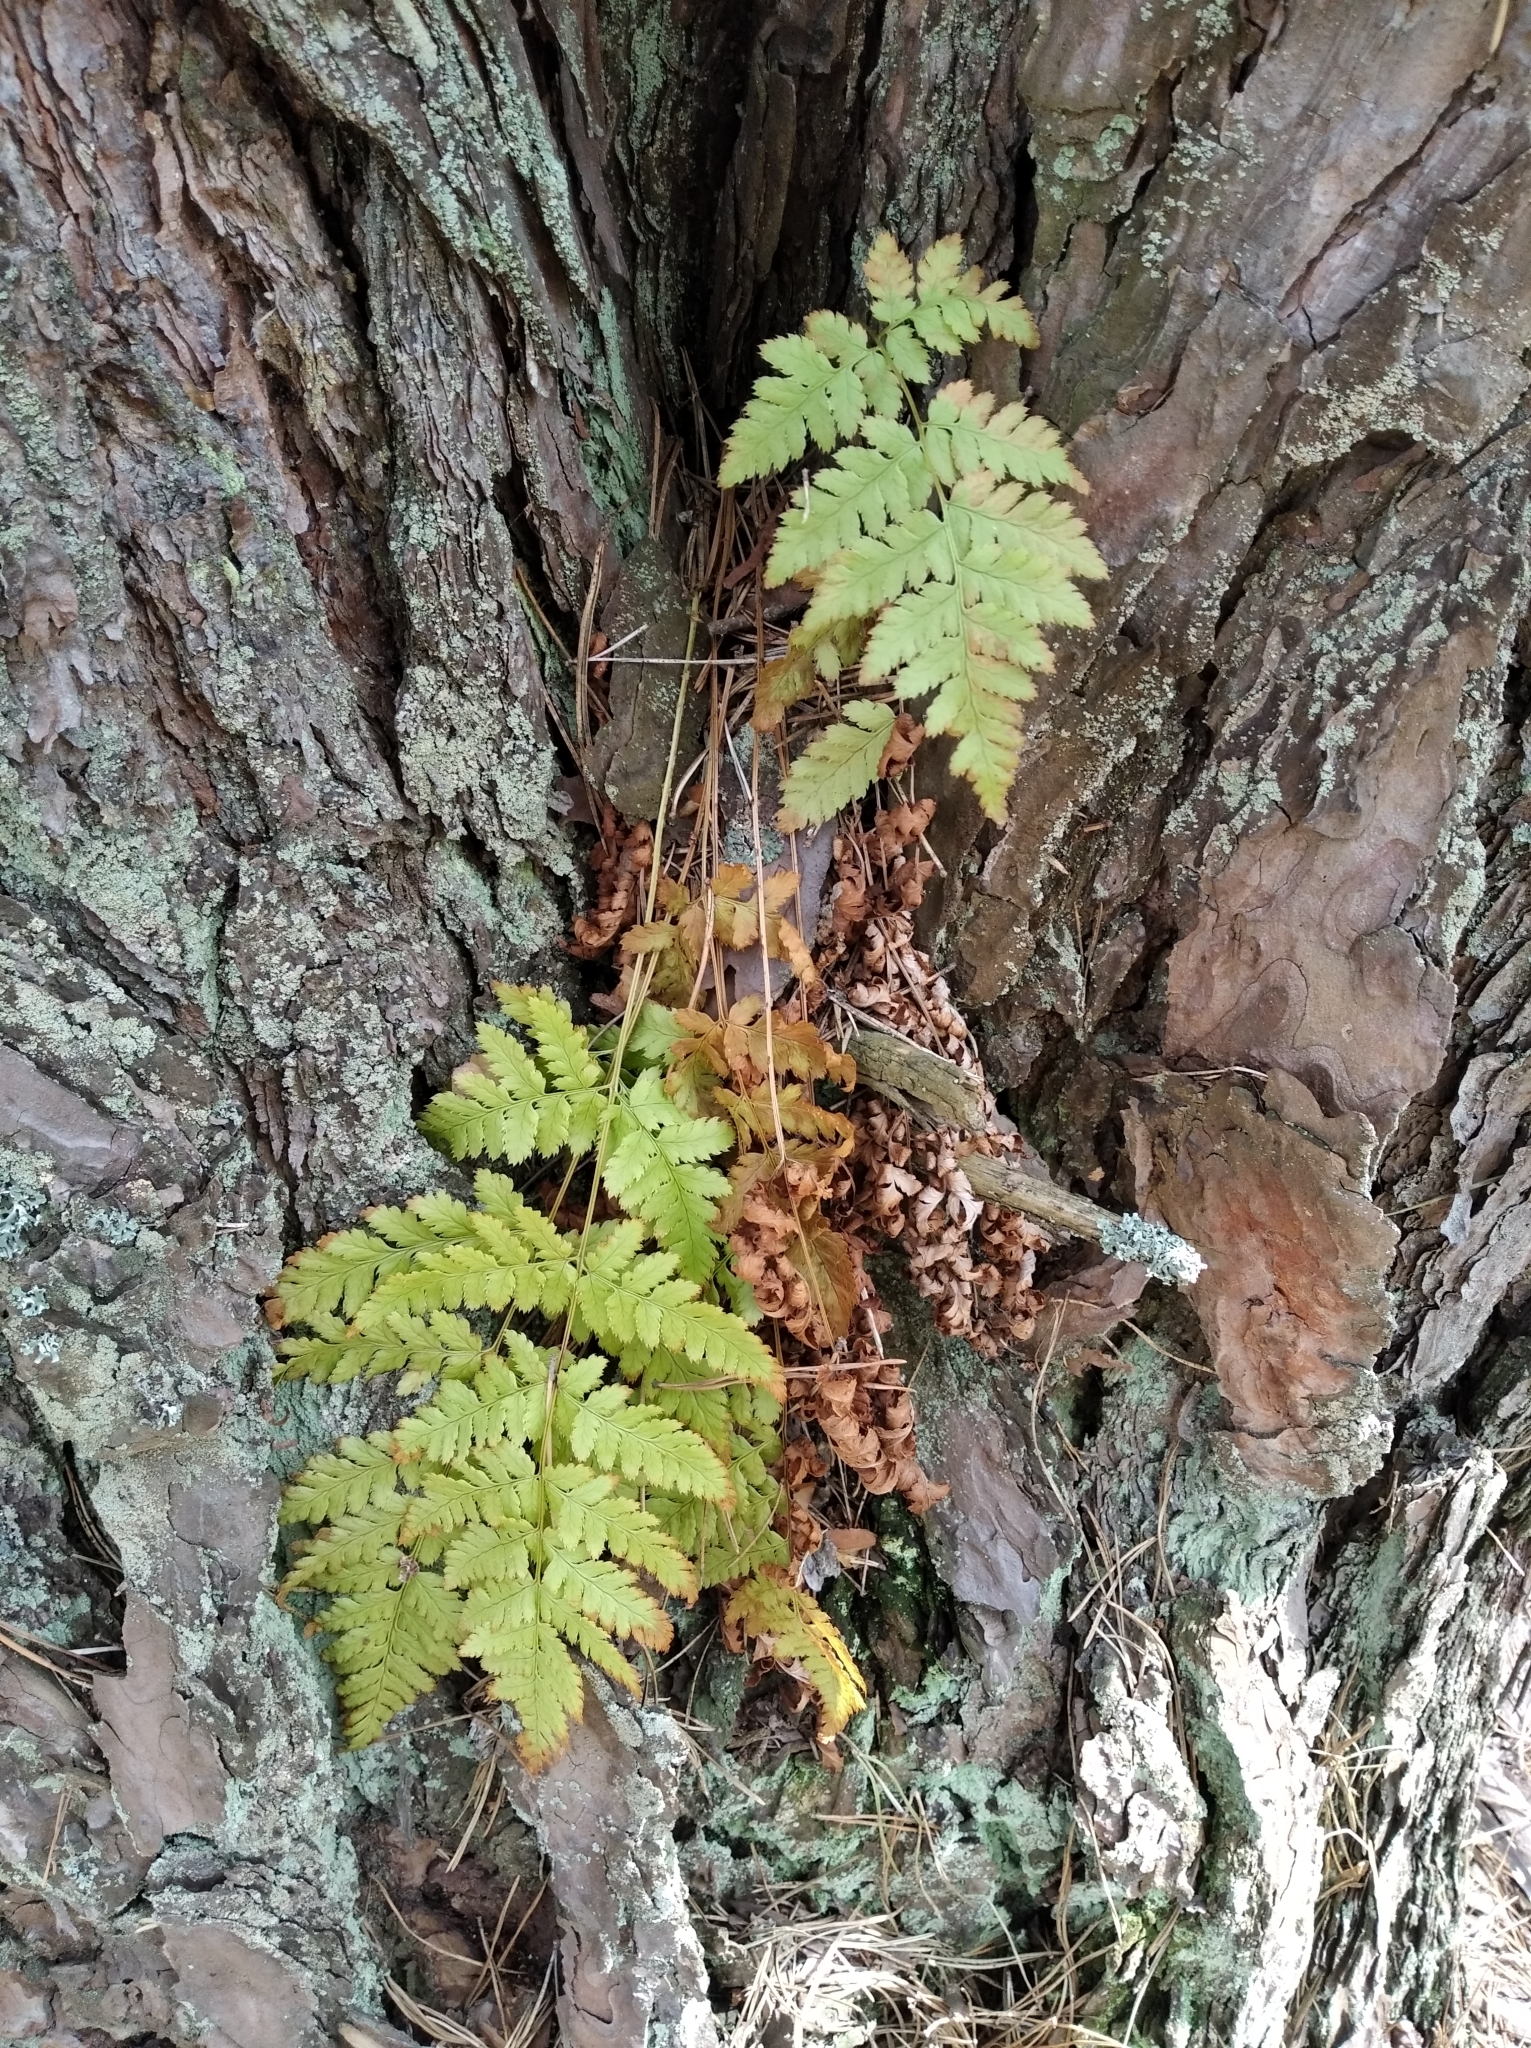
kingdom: Plantae
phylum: Tracheophyta
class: Polypodiopsida
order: Polypodiales
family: Dryopteridaceae
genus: Dryopteris
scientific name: Dryopteris carthusiana
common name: Narrow buckler-fern
